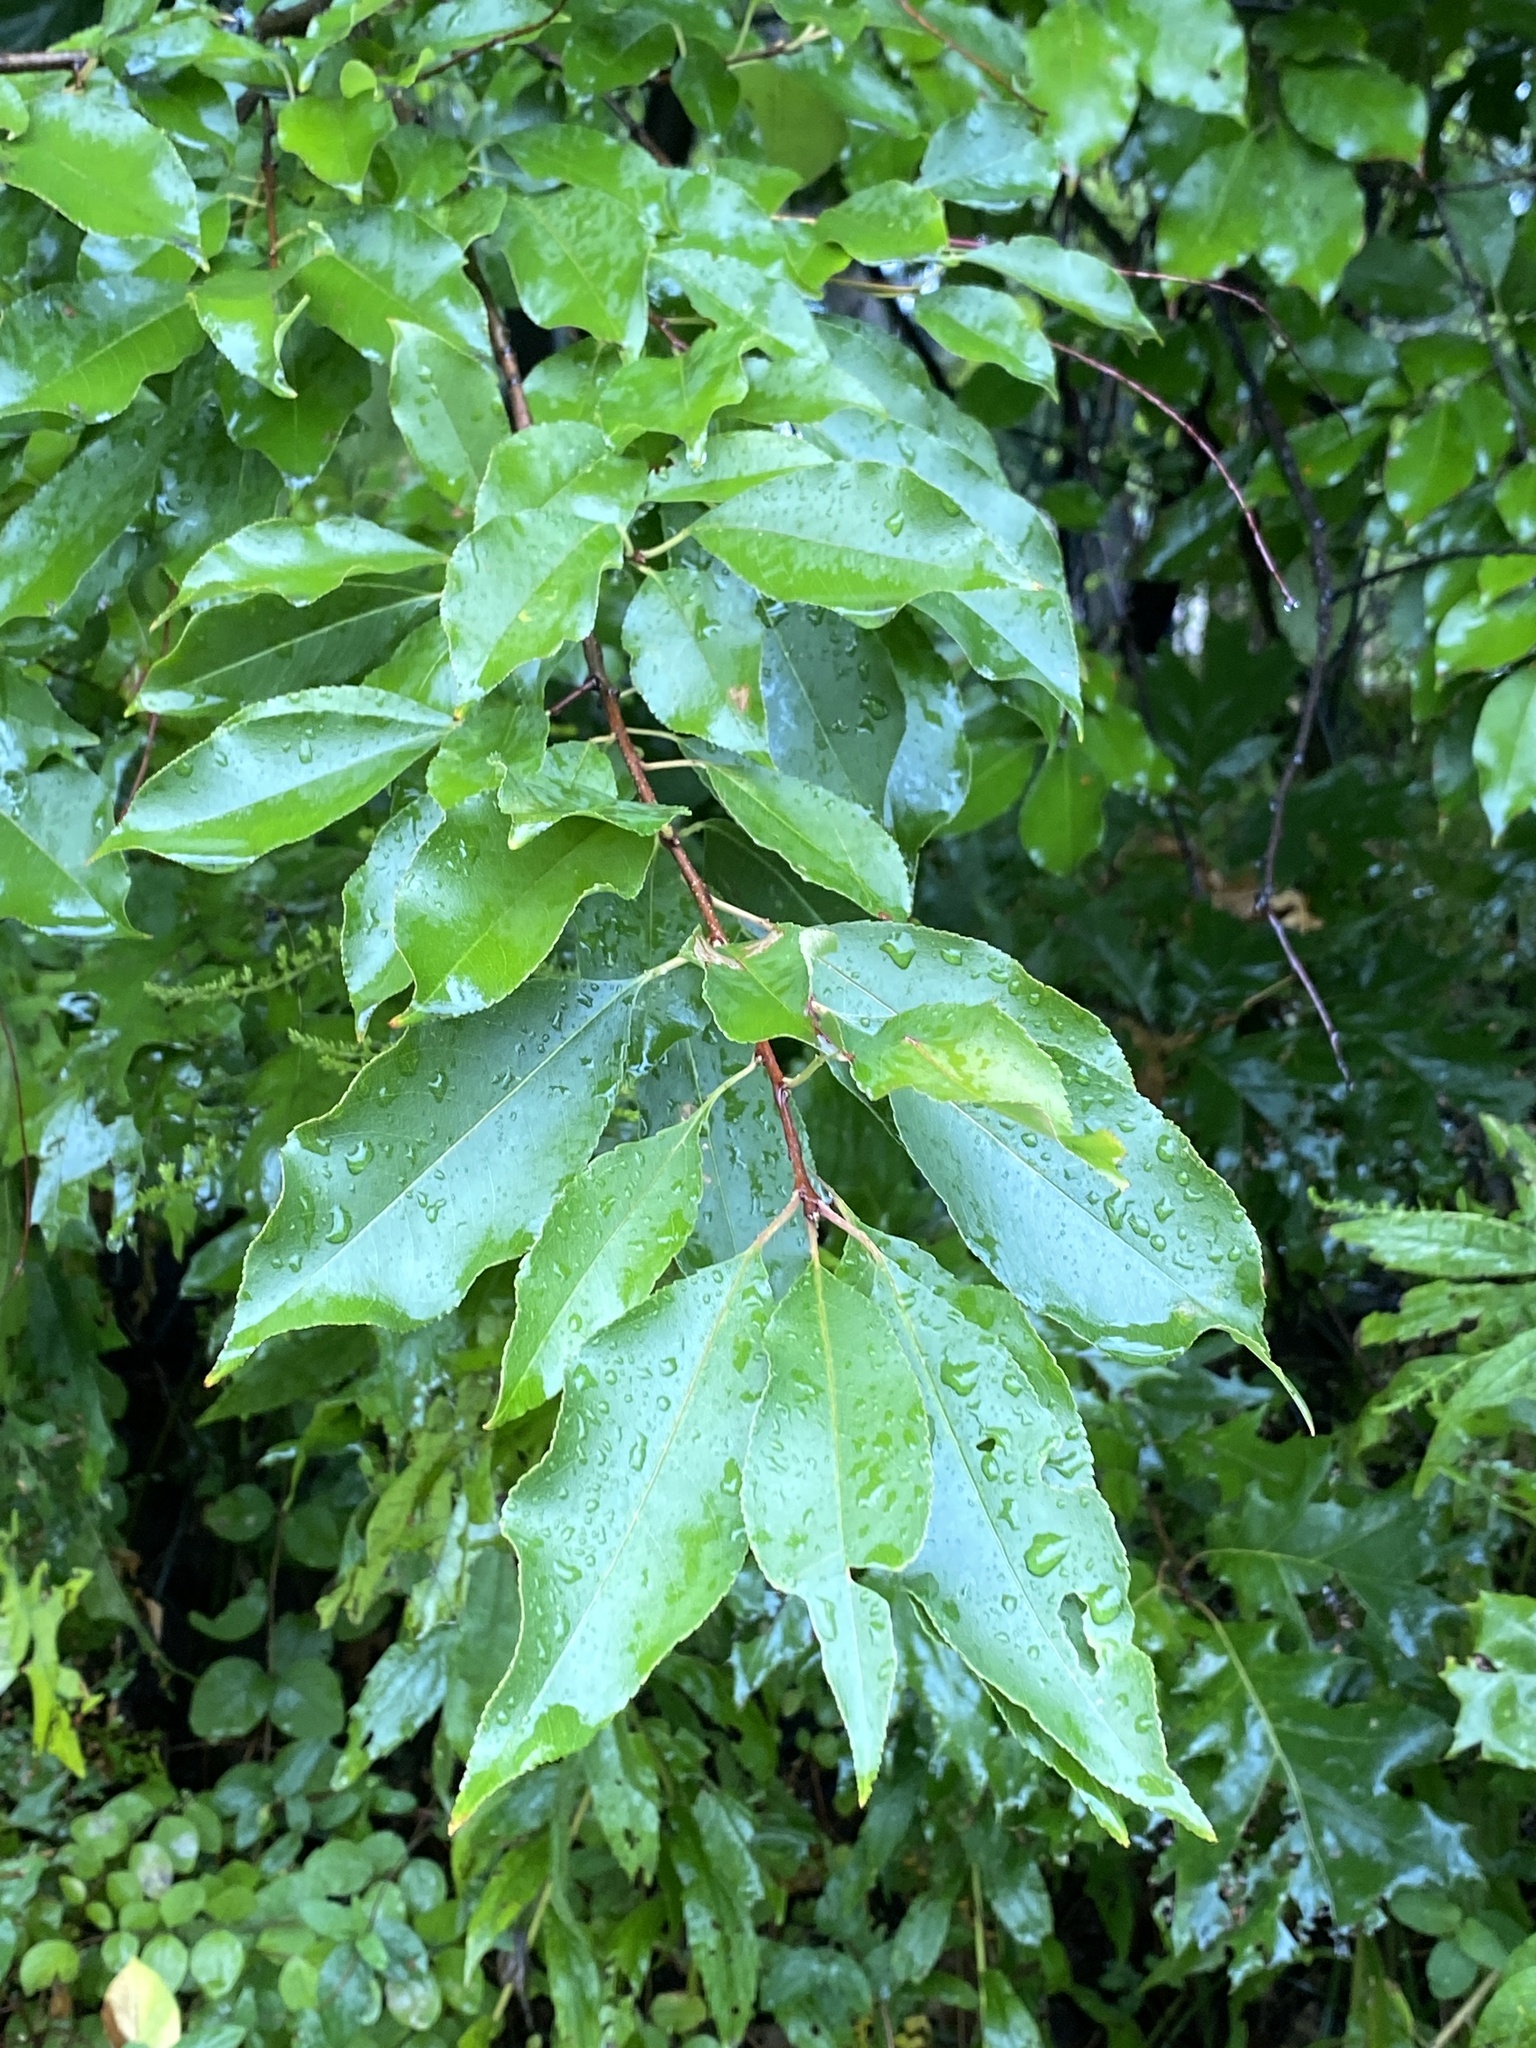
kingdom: Plantae
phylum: Tracheophyta
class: Magnoliopsida
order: Rosales
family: Rosaceae
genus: Prunus
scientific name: Prunus serotina
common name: Black cherry
